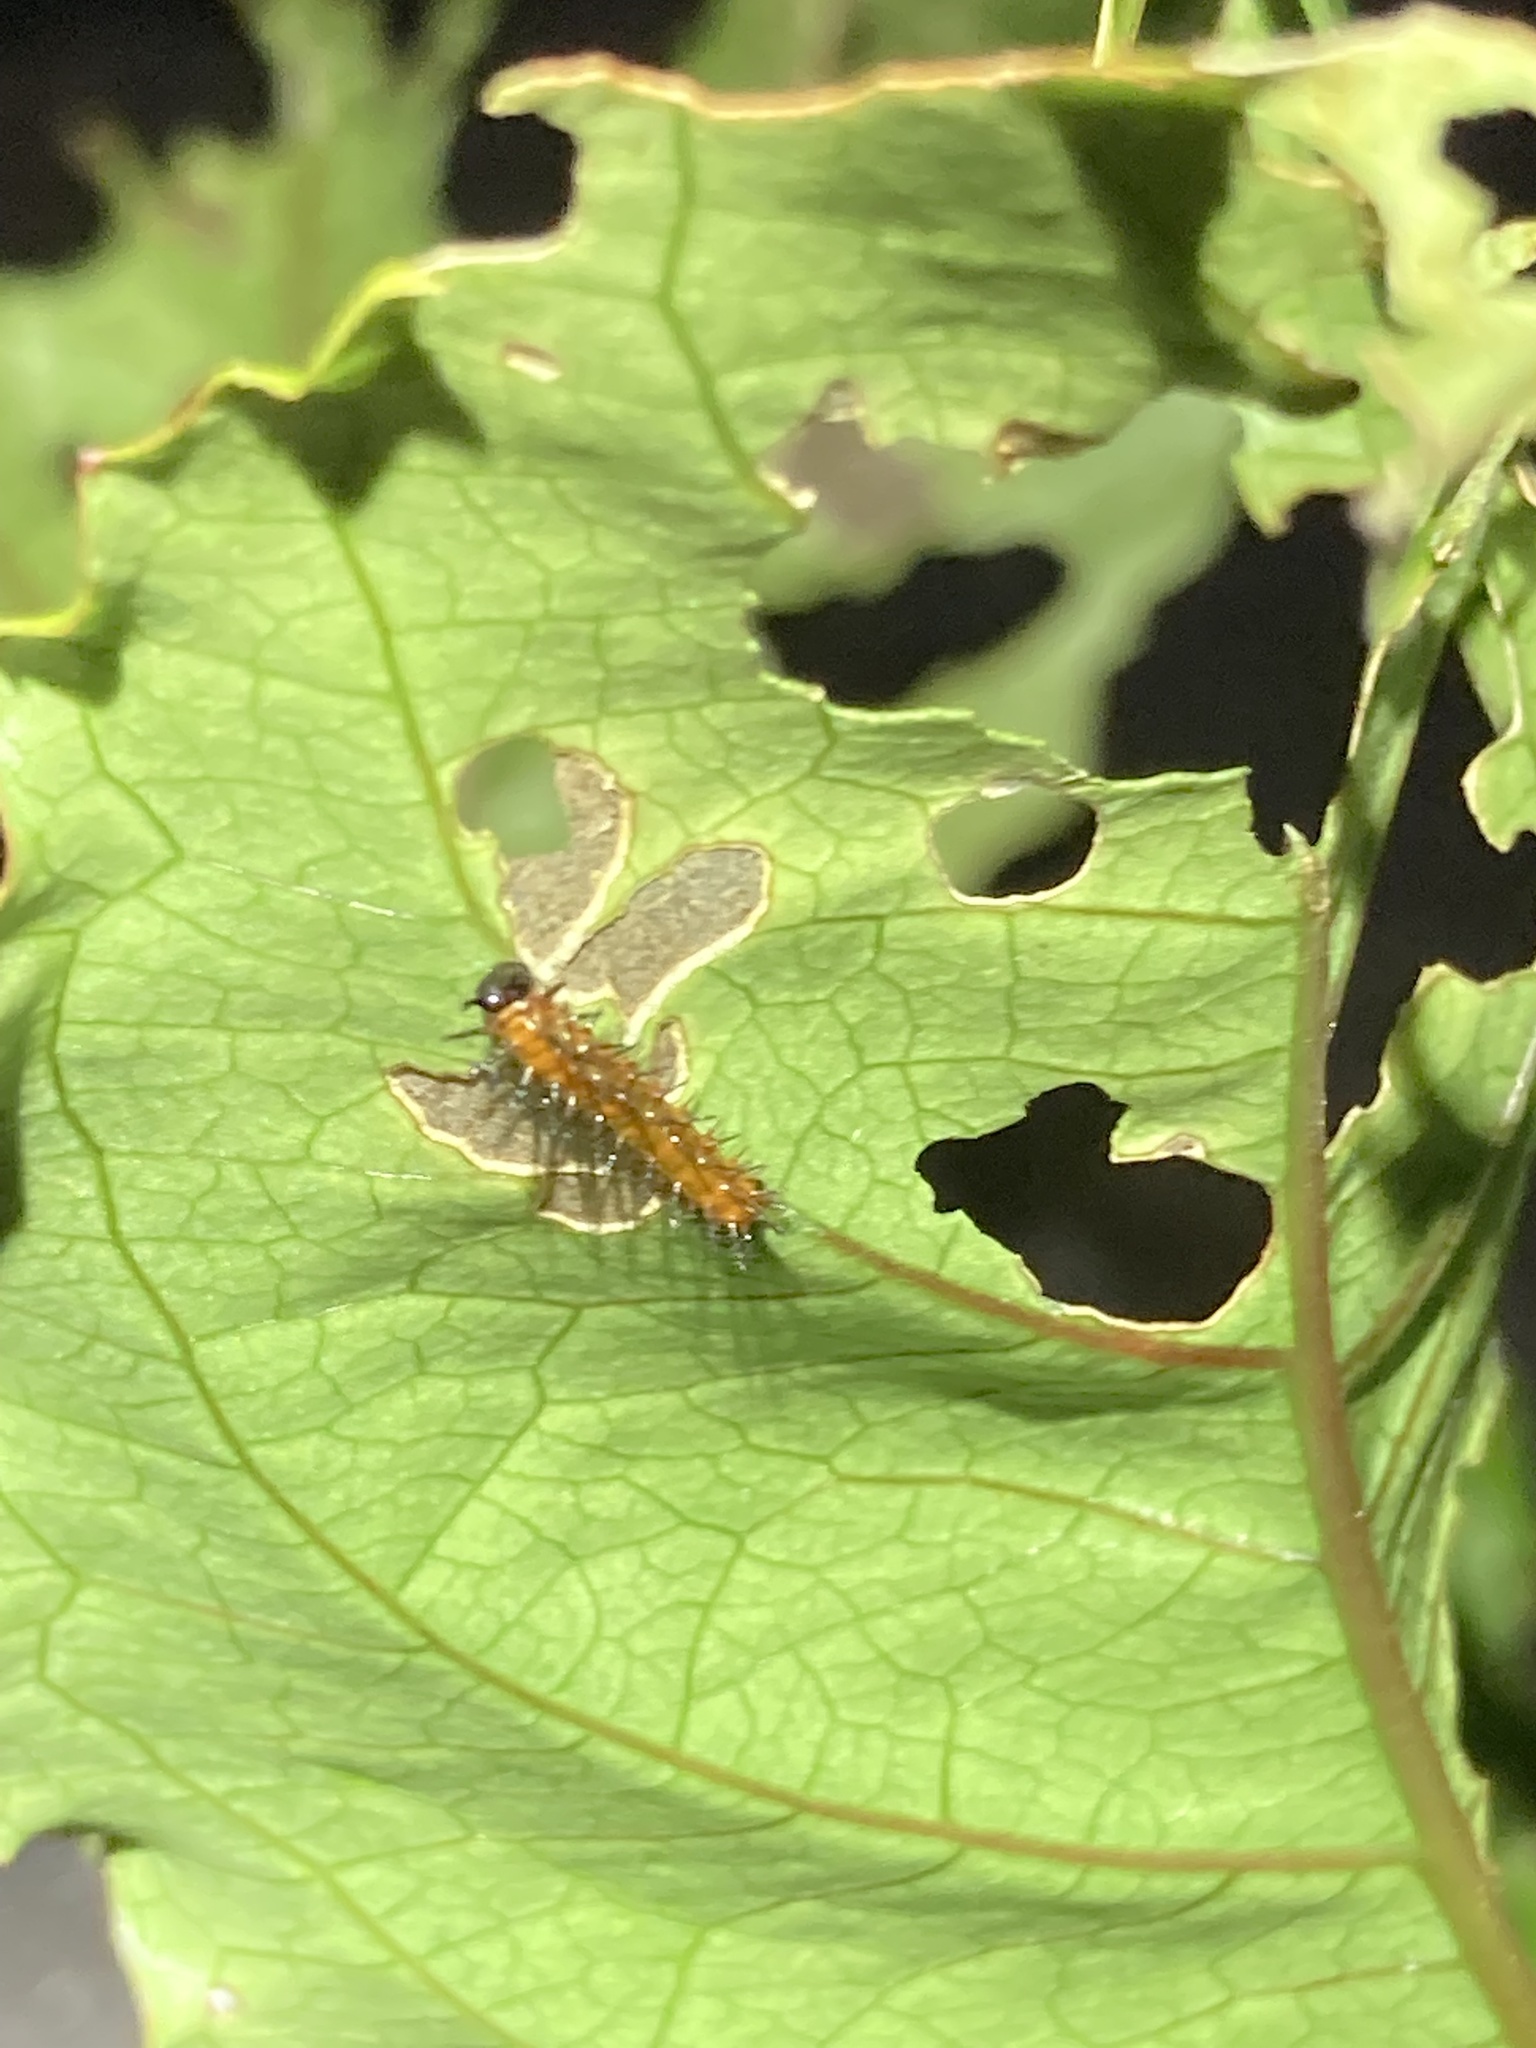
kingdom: Animalia
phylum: Arthropoda
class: Insecta
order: Lepidoptera
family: Nymphalidae
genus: Dione
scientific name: Dione vanillae
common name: Gulf fritillary
